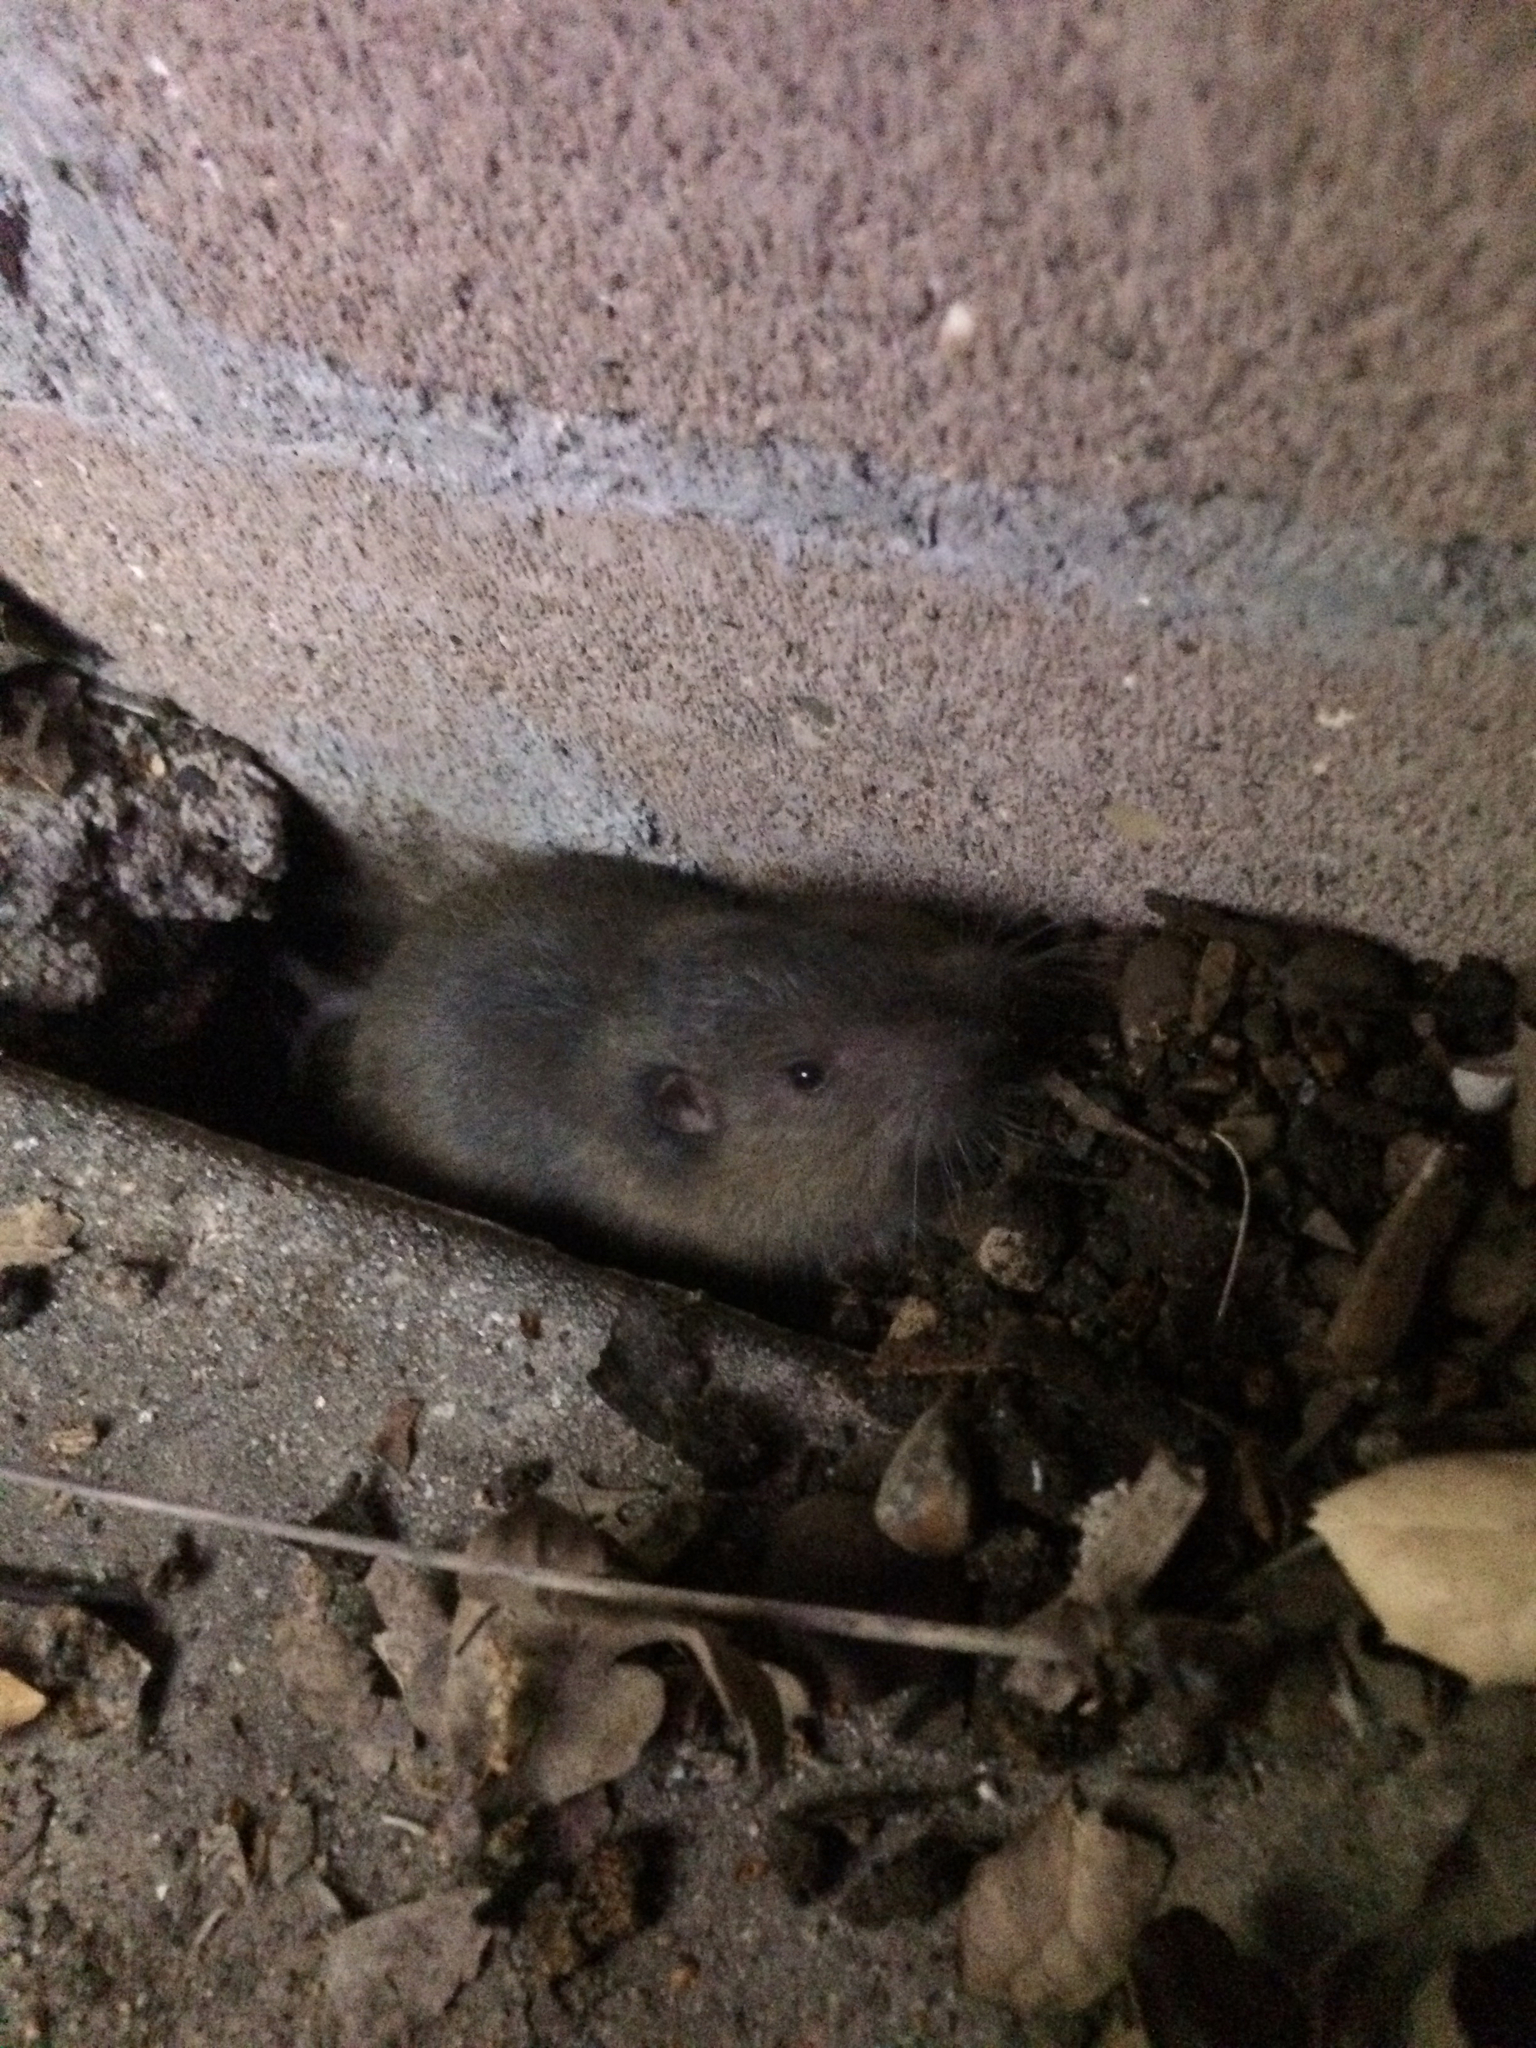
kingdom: Animalia
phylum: Chordata
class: Mammalia
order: Rodentia
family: Geomyidae
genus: Thomomys
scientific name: Thomomys bottae
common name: Botta's pocket gopher
